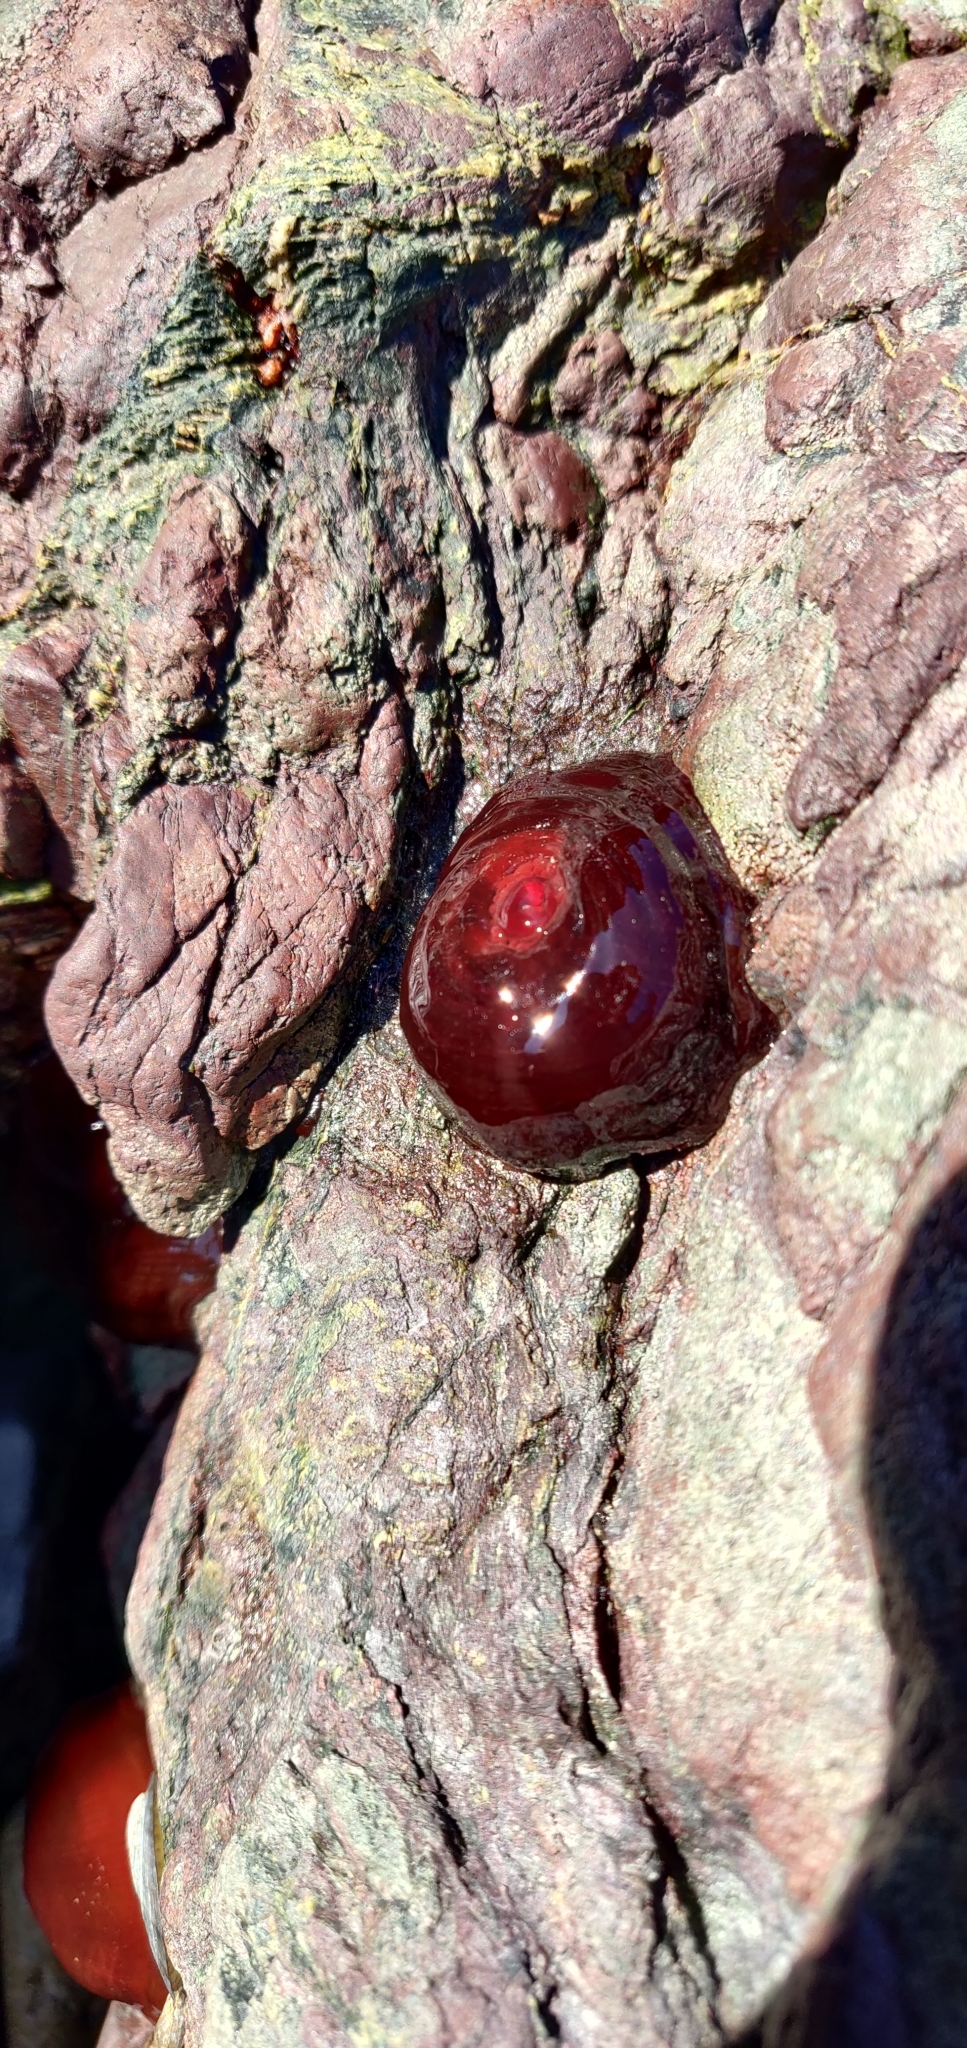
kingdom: Animalia
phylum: Cnidaria
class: Anthozoa
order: Actiniaria
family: Actiniidae
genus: Actinia
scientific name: Actinia tenebrosa
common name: Waratah anemone
